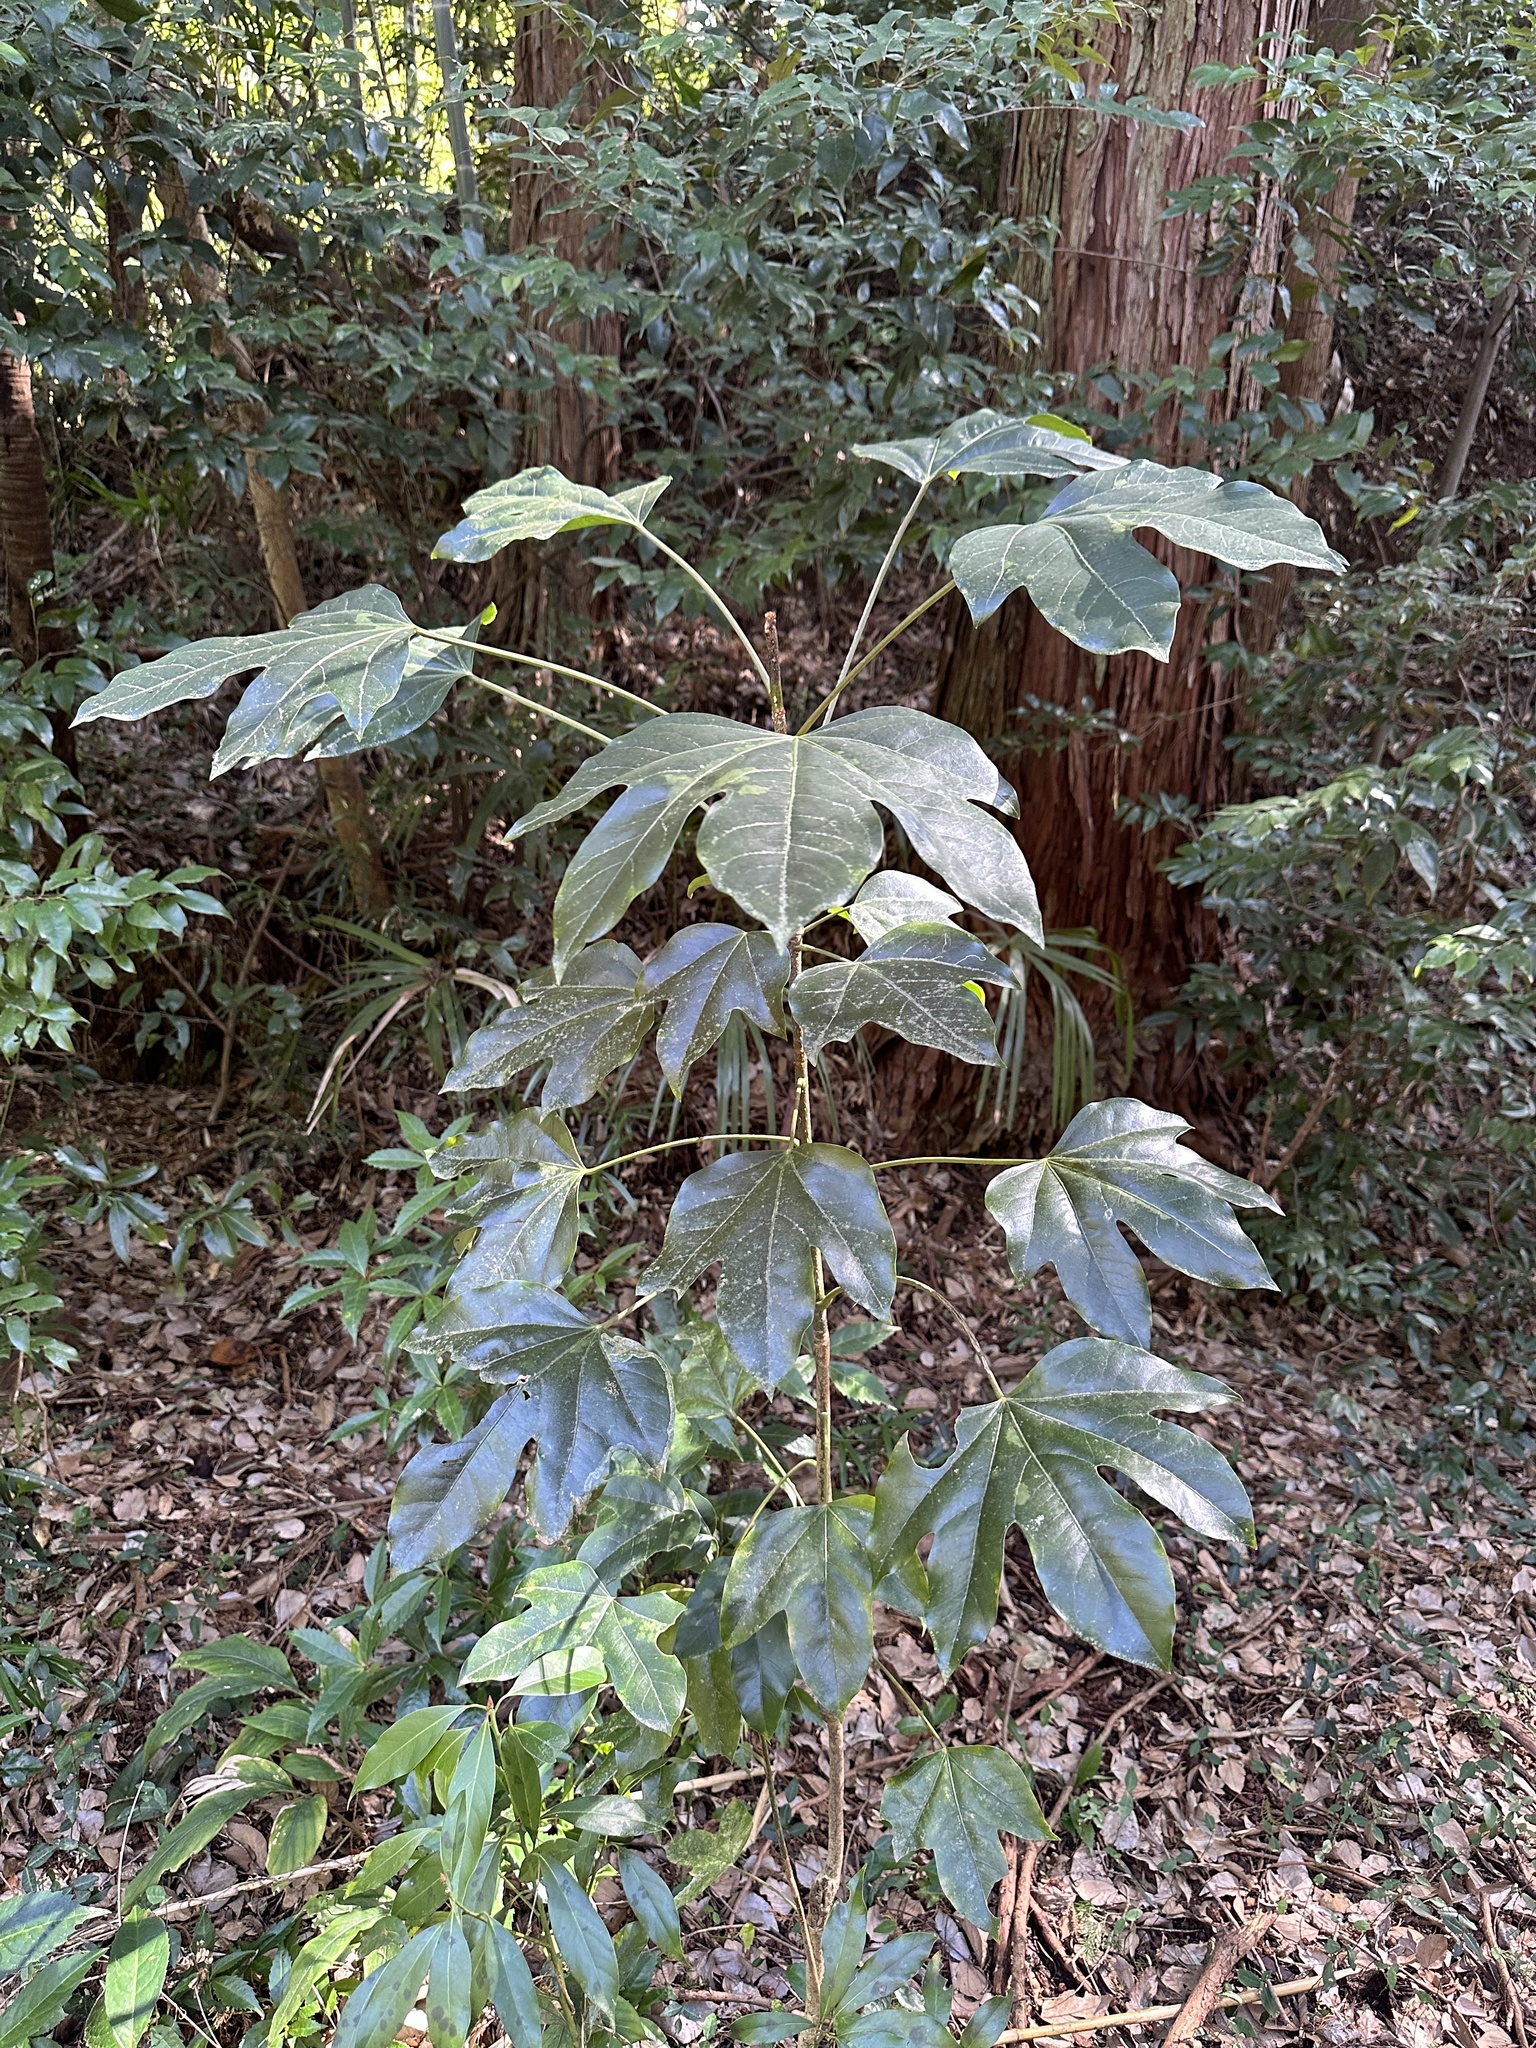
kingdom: Plantae
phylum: Tracheophyta
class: Magnoliopsida
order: Apiales
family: Araliaceae
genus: Dendropanax
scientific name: Dendropanax trifidus
